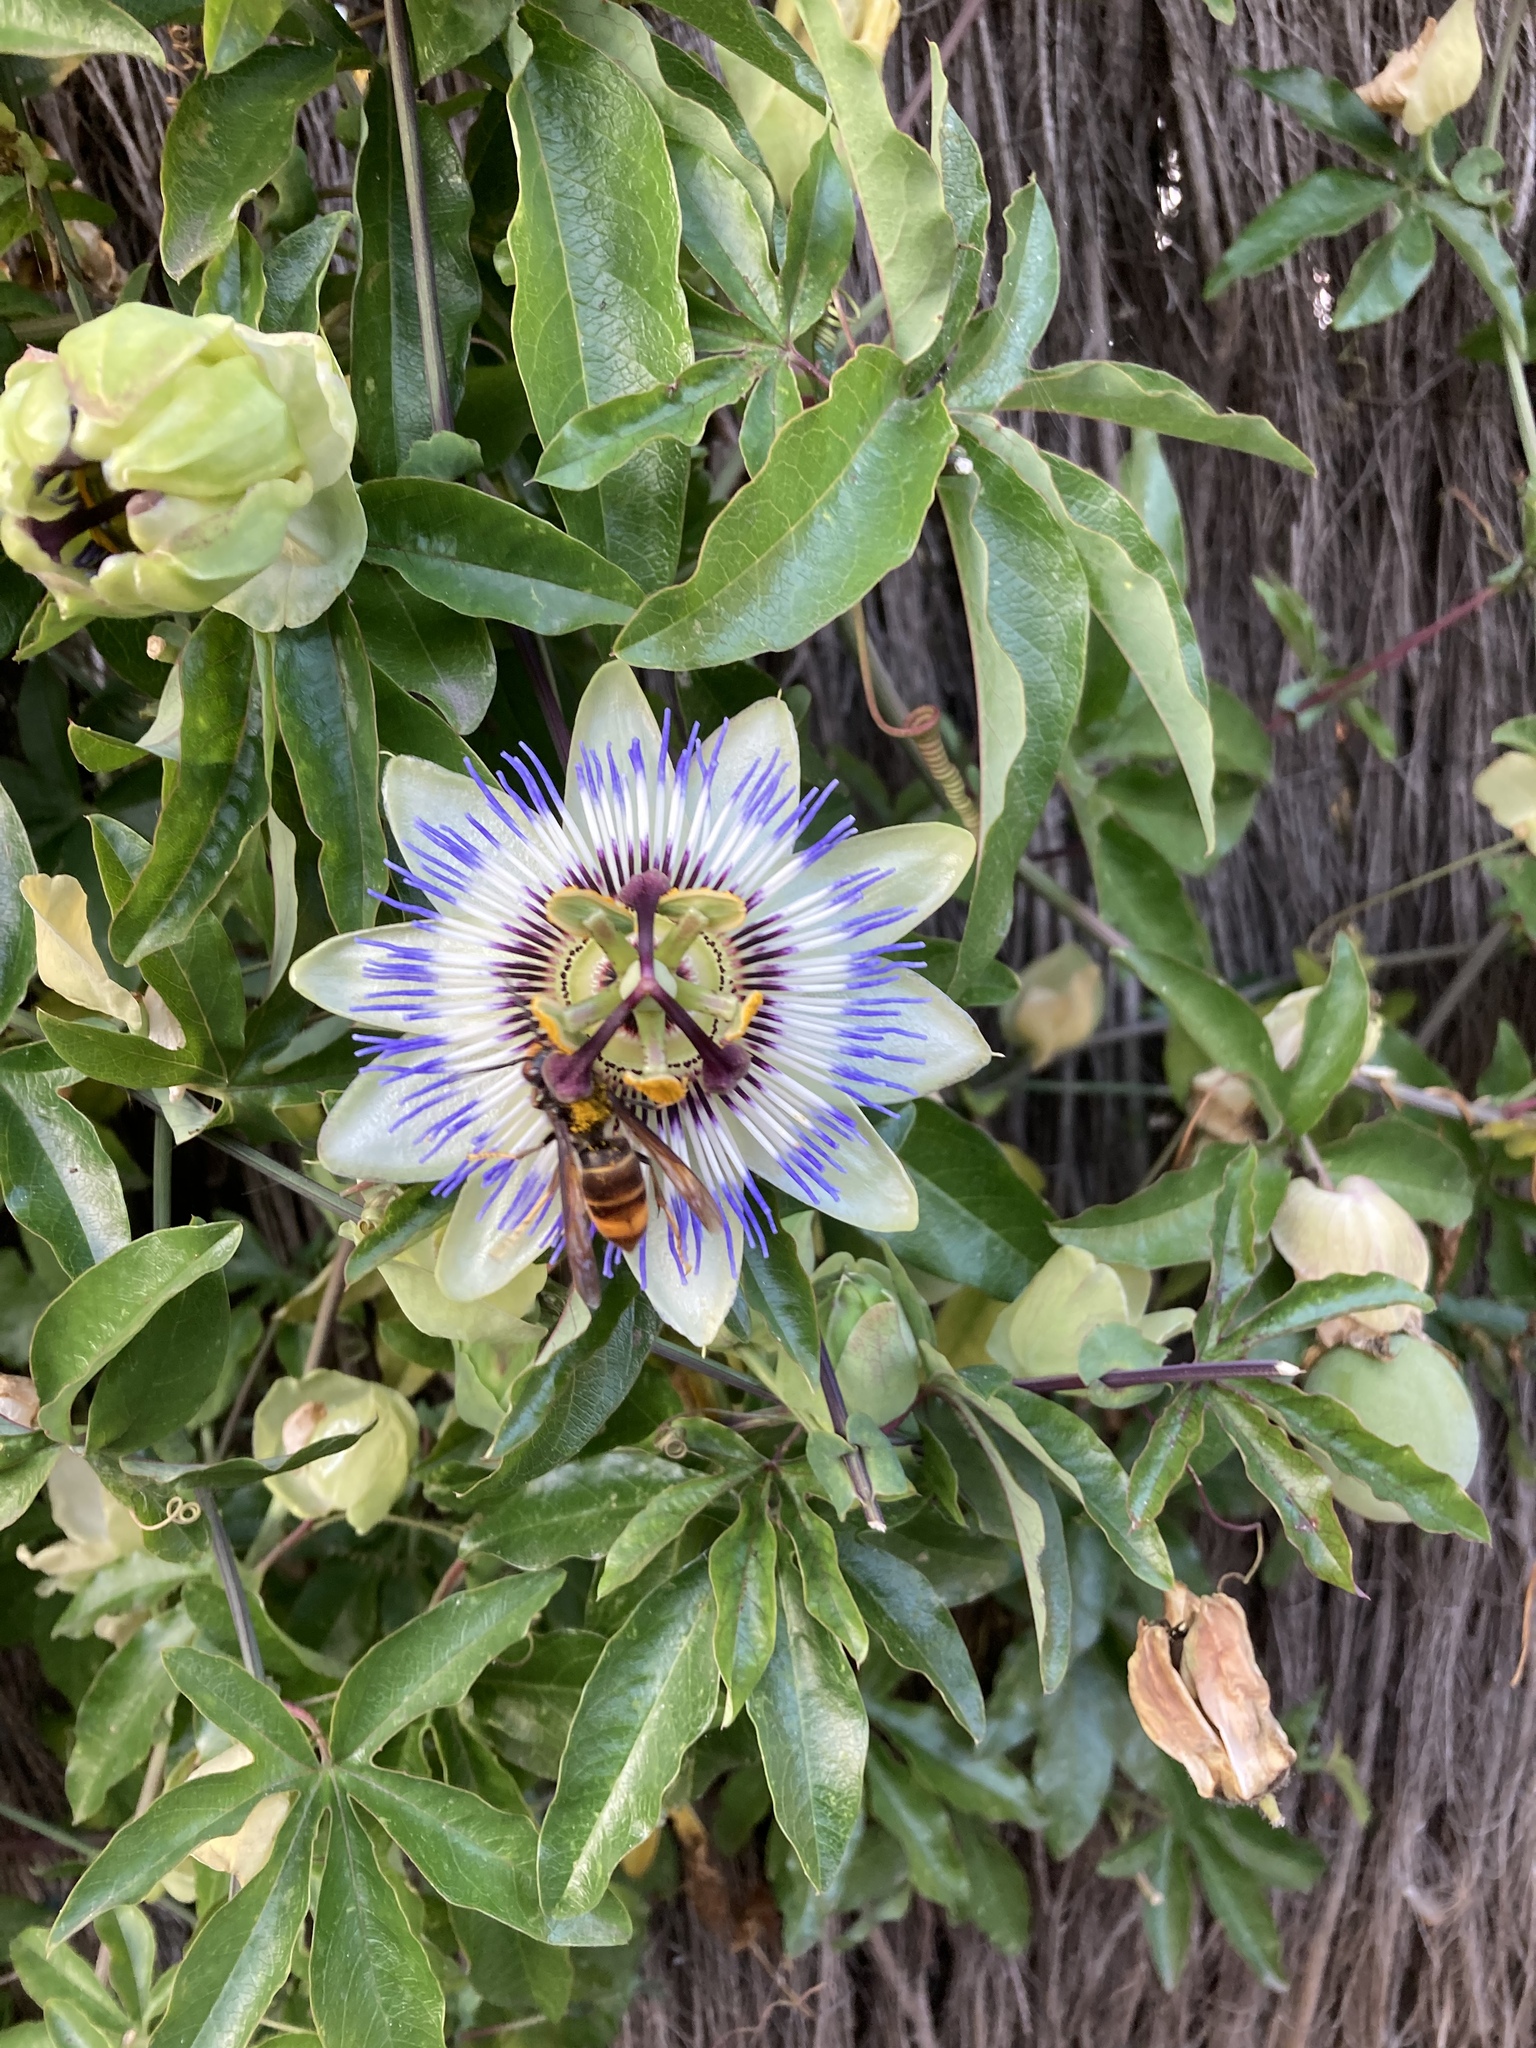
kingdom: Animalia
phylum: Arthropoda
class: Insecta
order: Hymenoptera
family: Vespidae
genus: Vespa
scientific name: Vespa velutina
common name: Asian hornet
